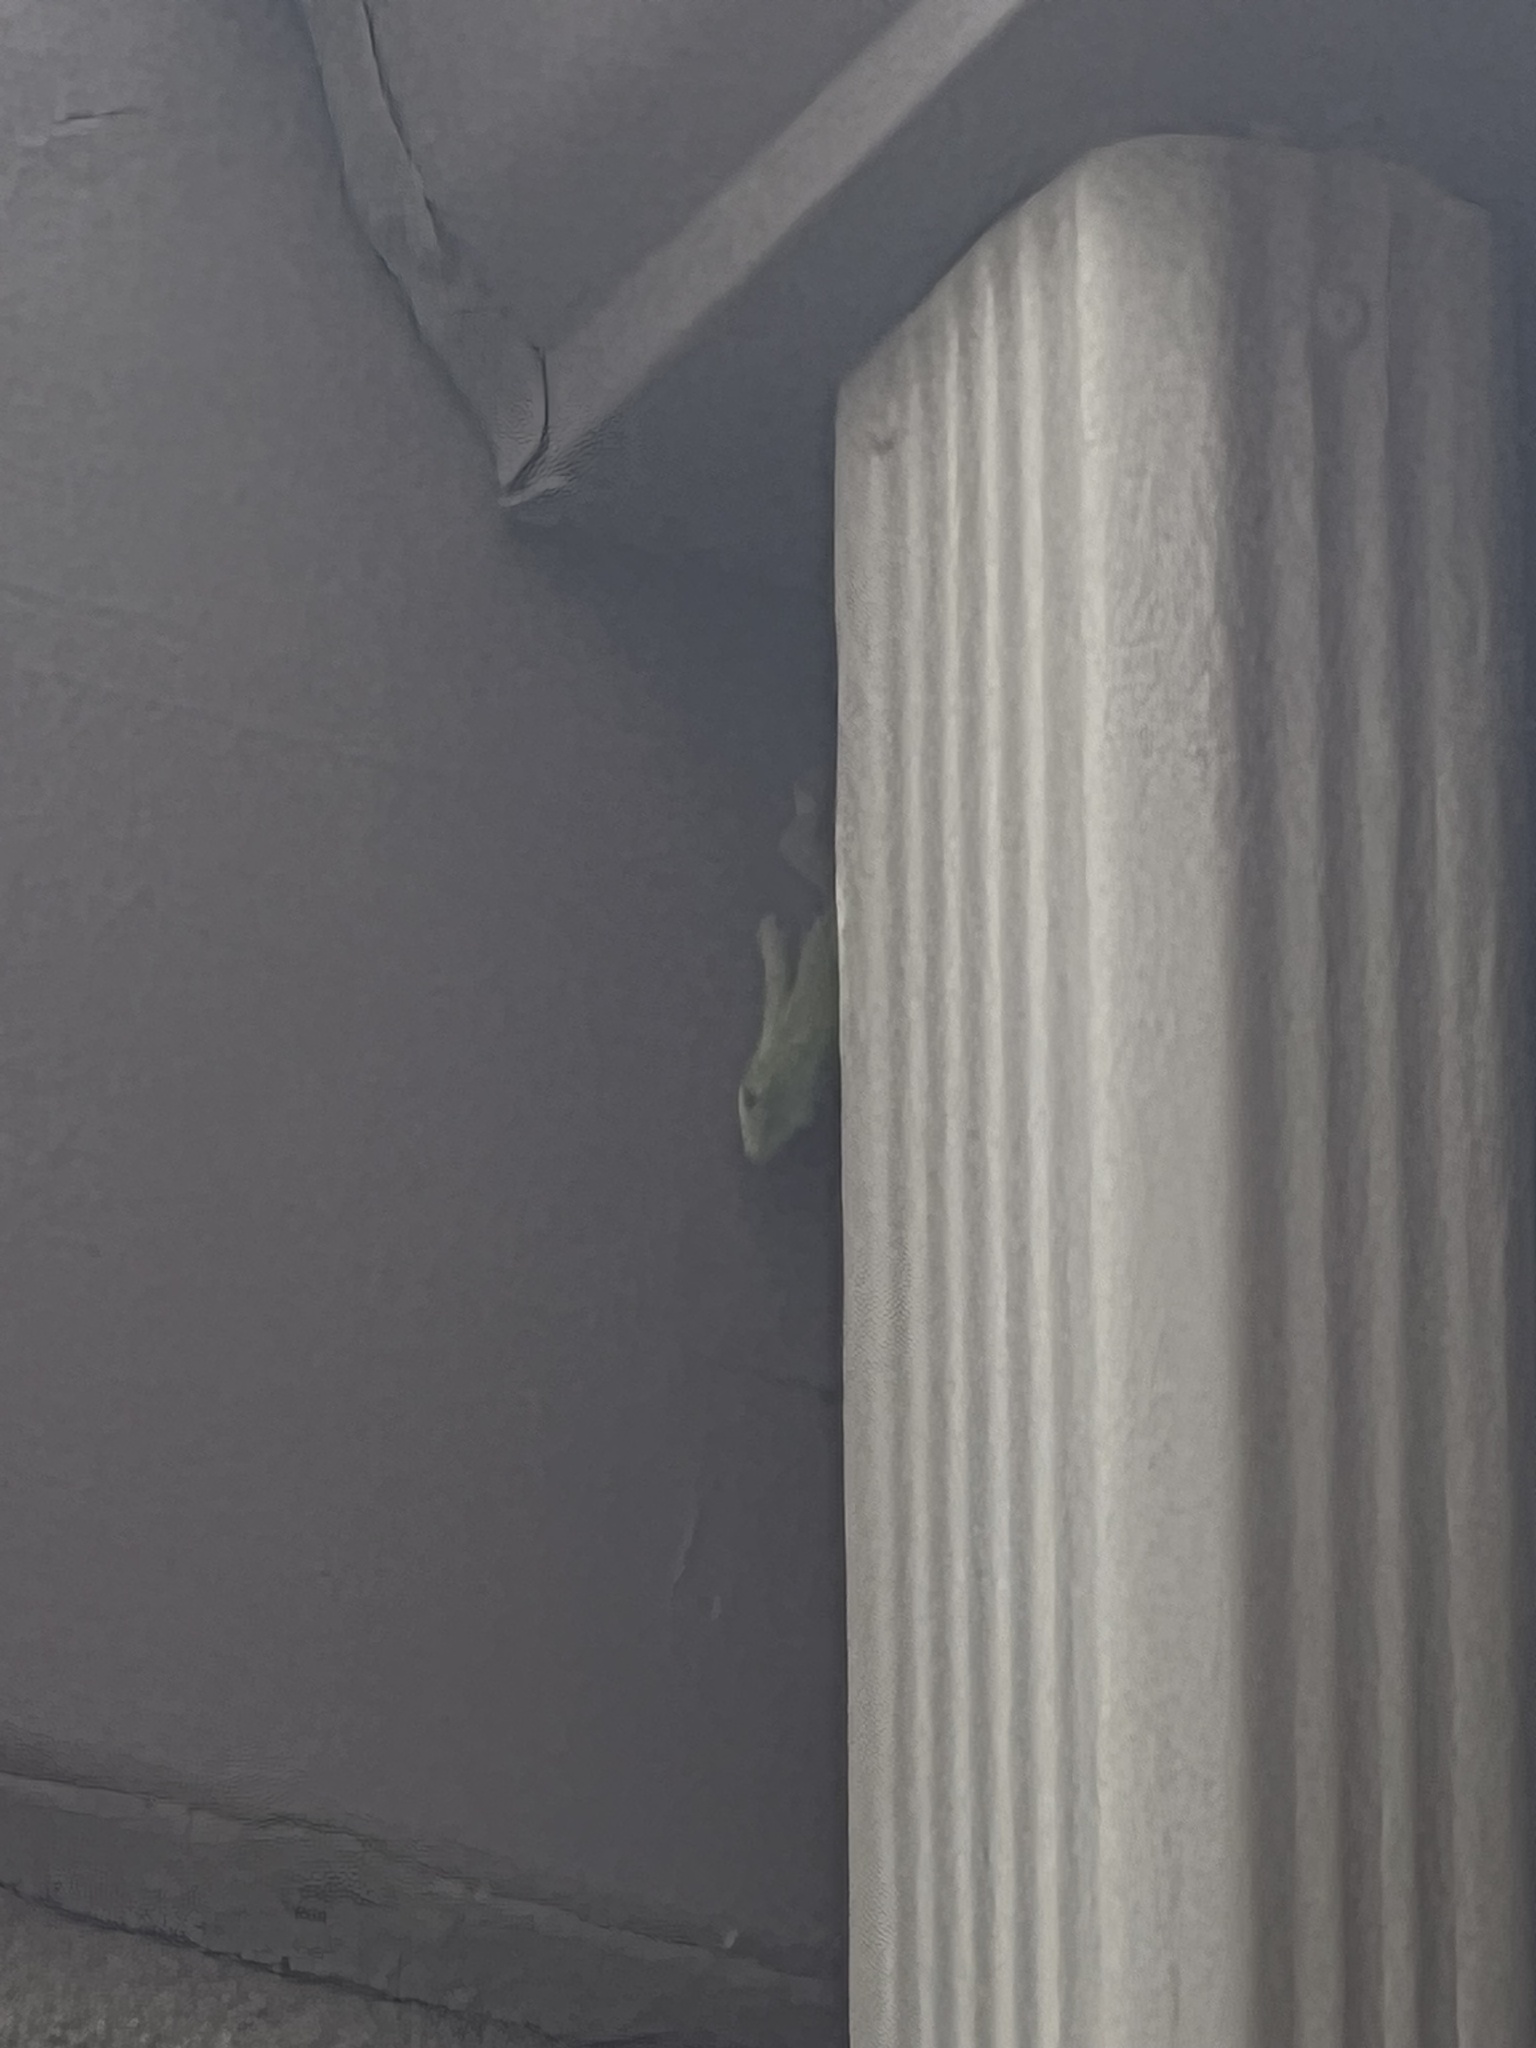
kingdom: Animalia
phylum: Chordata
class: Squamata
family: Gekkonidae
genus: Phelsuma
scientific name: Phelsuma laticauda
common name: Gold dust day gecko
